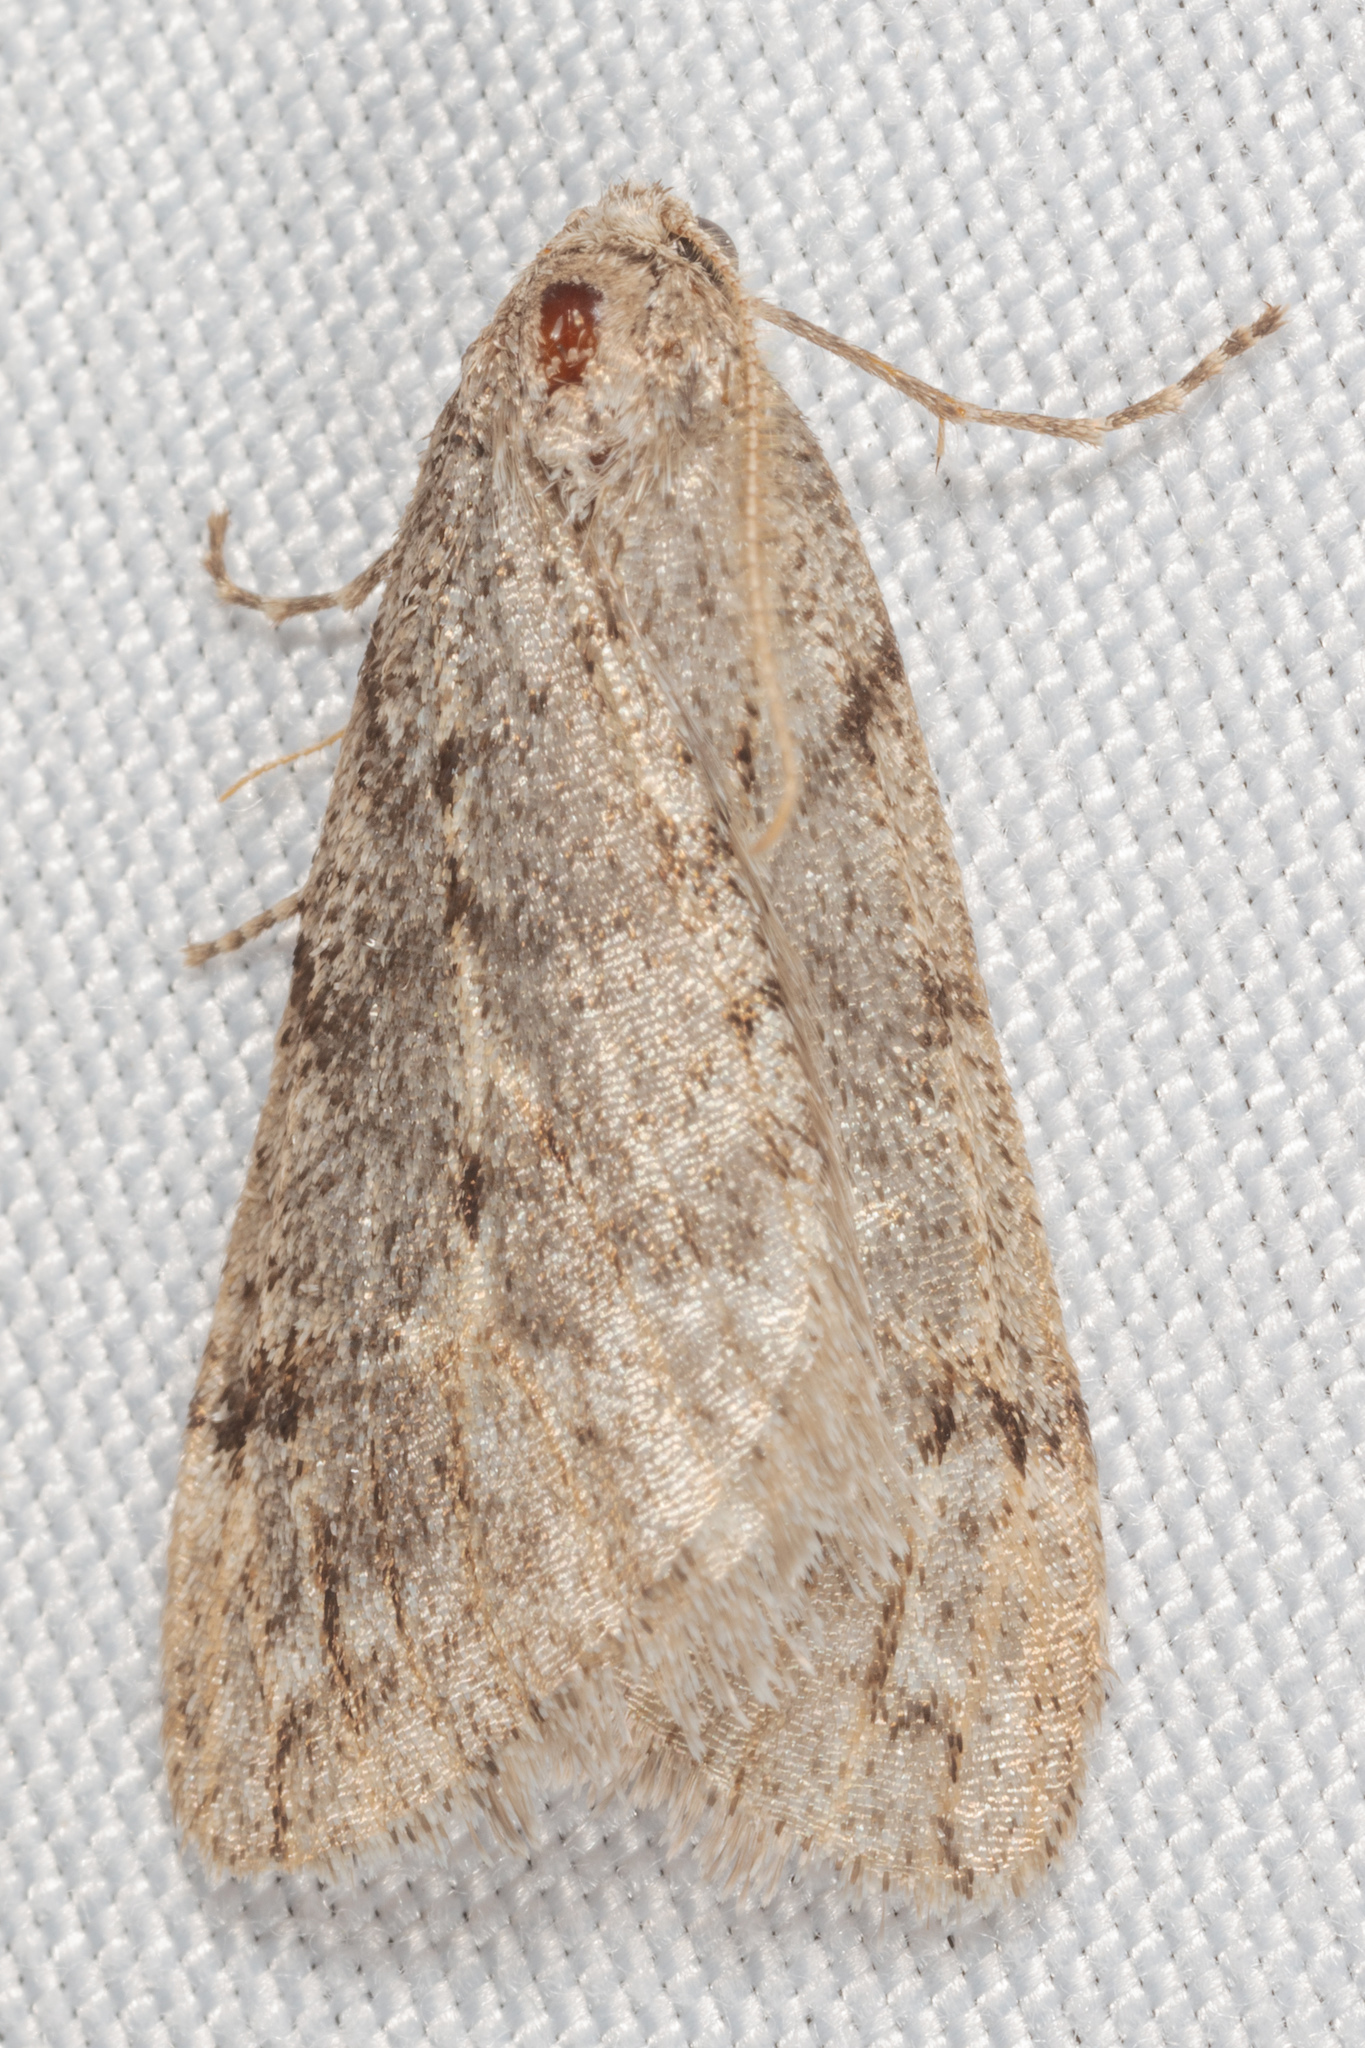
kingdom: Animalia
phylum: Arthropoda
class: Insecta
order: Lepidoptera
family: Geometridae
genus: Paleacrita
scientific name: Paleacrita vernata
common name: Spring cankerworm
